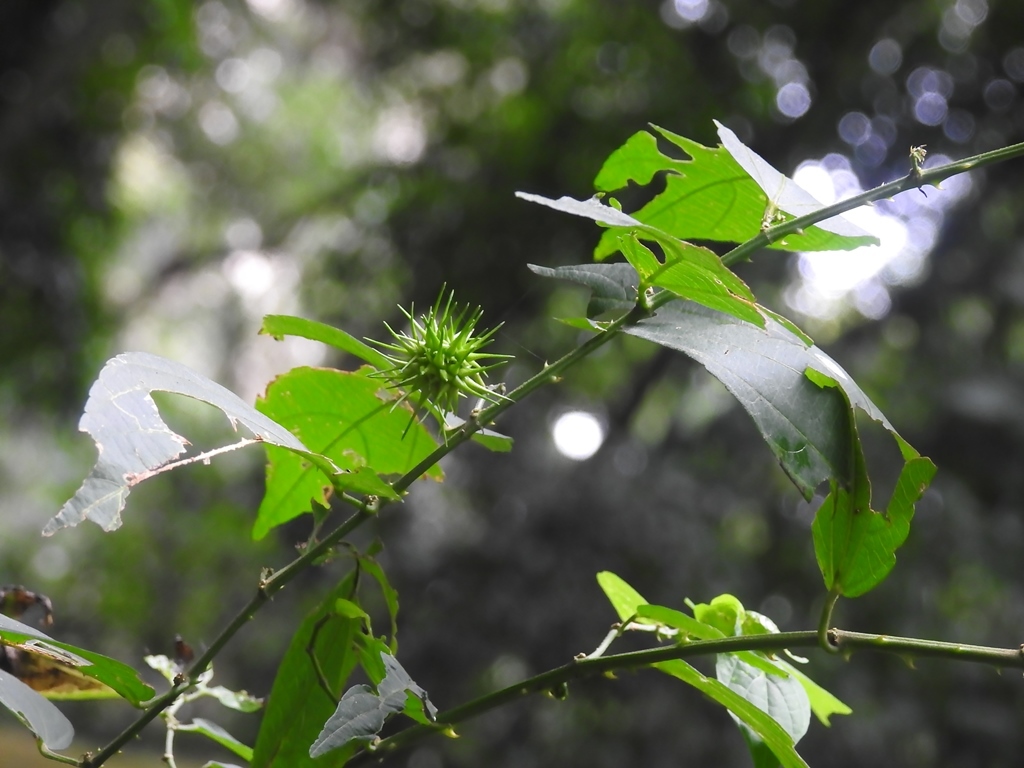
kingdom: Plantae
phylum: Tracheophyta
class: Magnoliopsida
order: Malvales
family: Malvaceae
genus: Byttneria
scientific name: Byttneria aculeata
